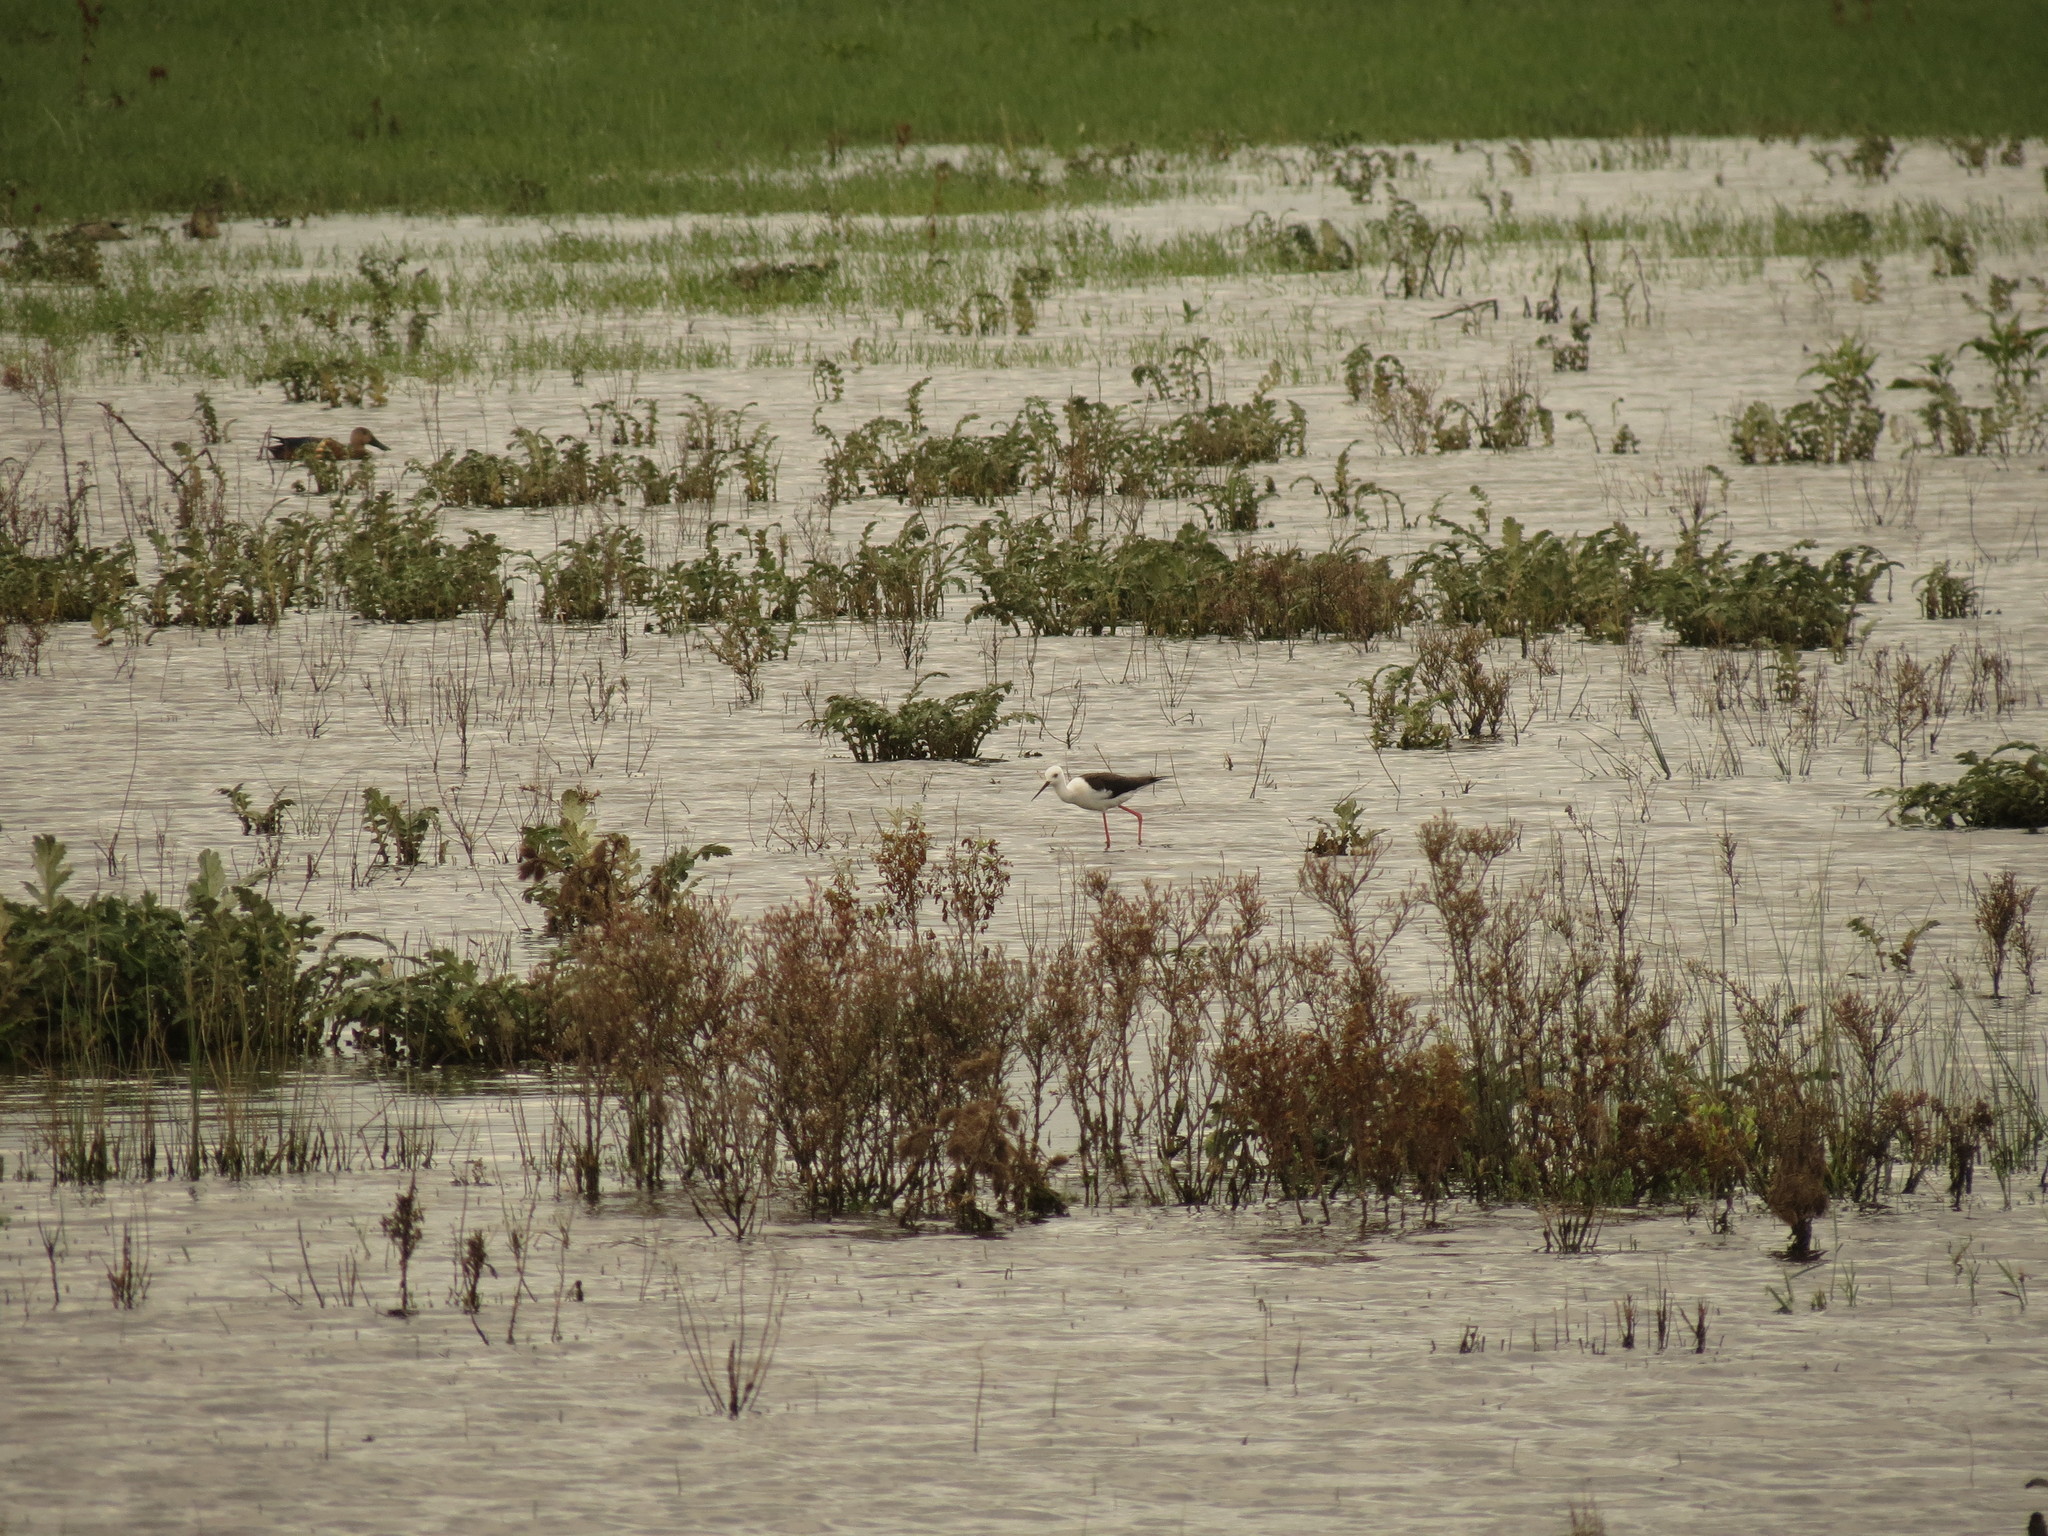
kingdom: Animalia
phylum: Chordata
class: Aves
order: Charadriiformes
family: Recurvirostridae
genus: Himantopus
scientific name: Himantopus himantopus
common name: Black-winged stilt
